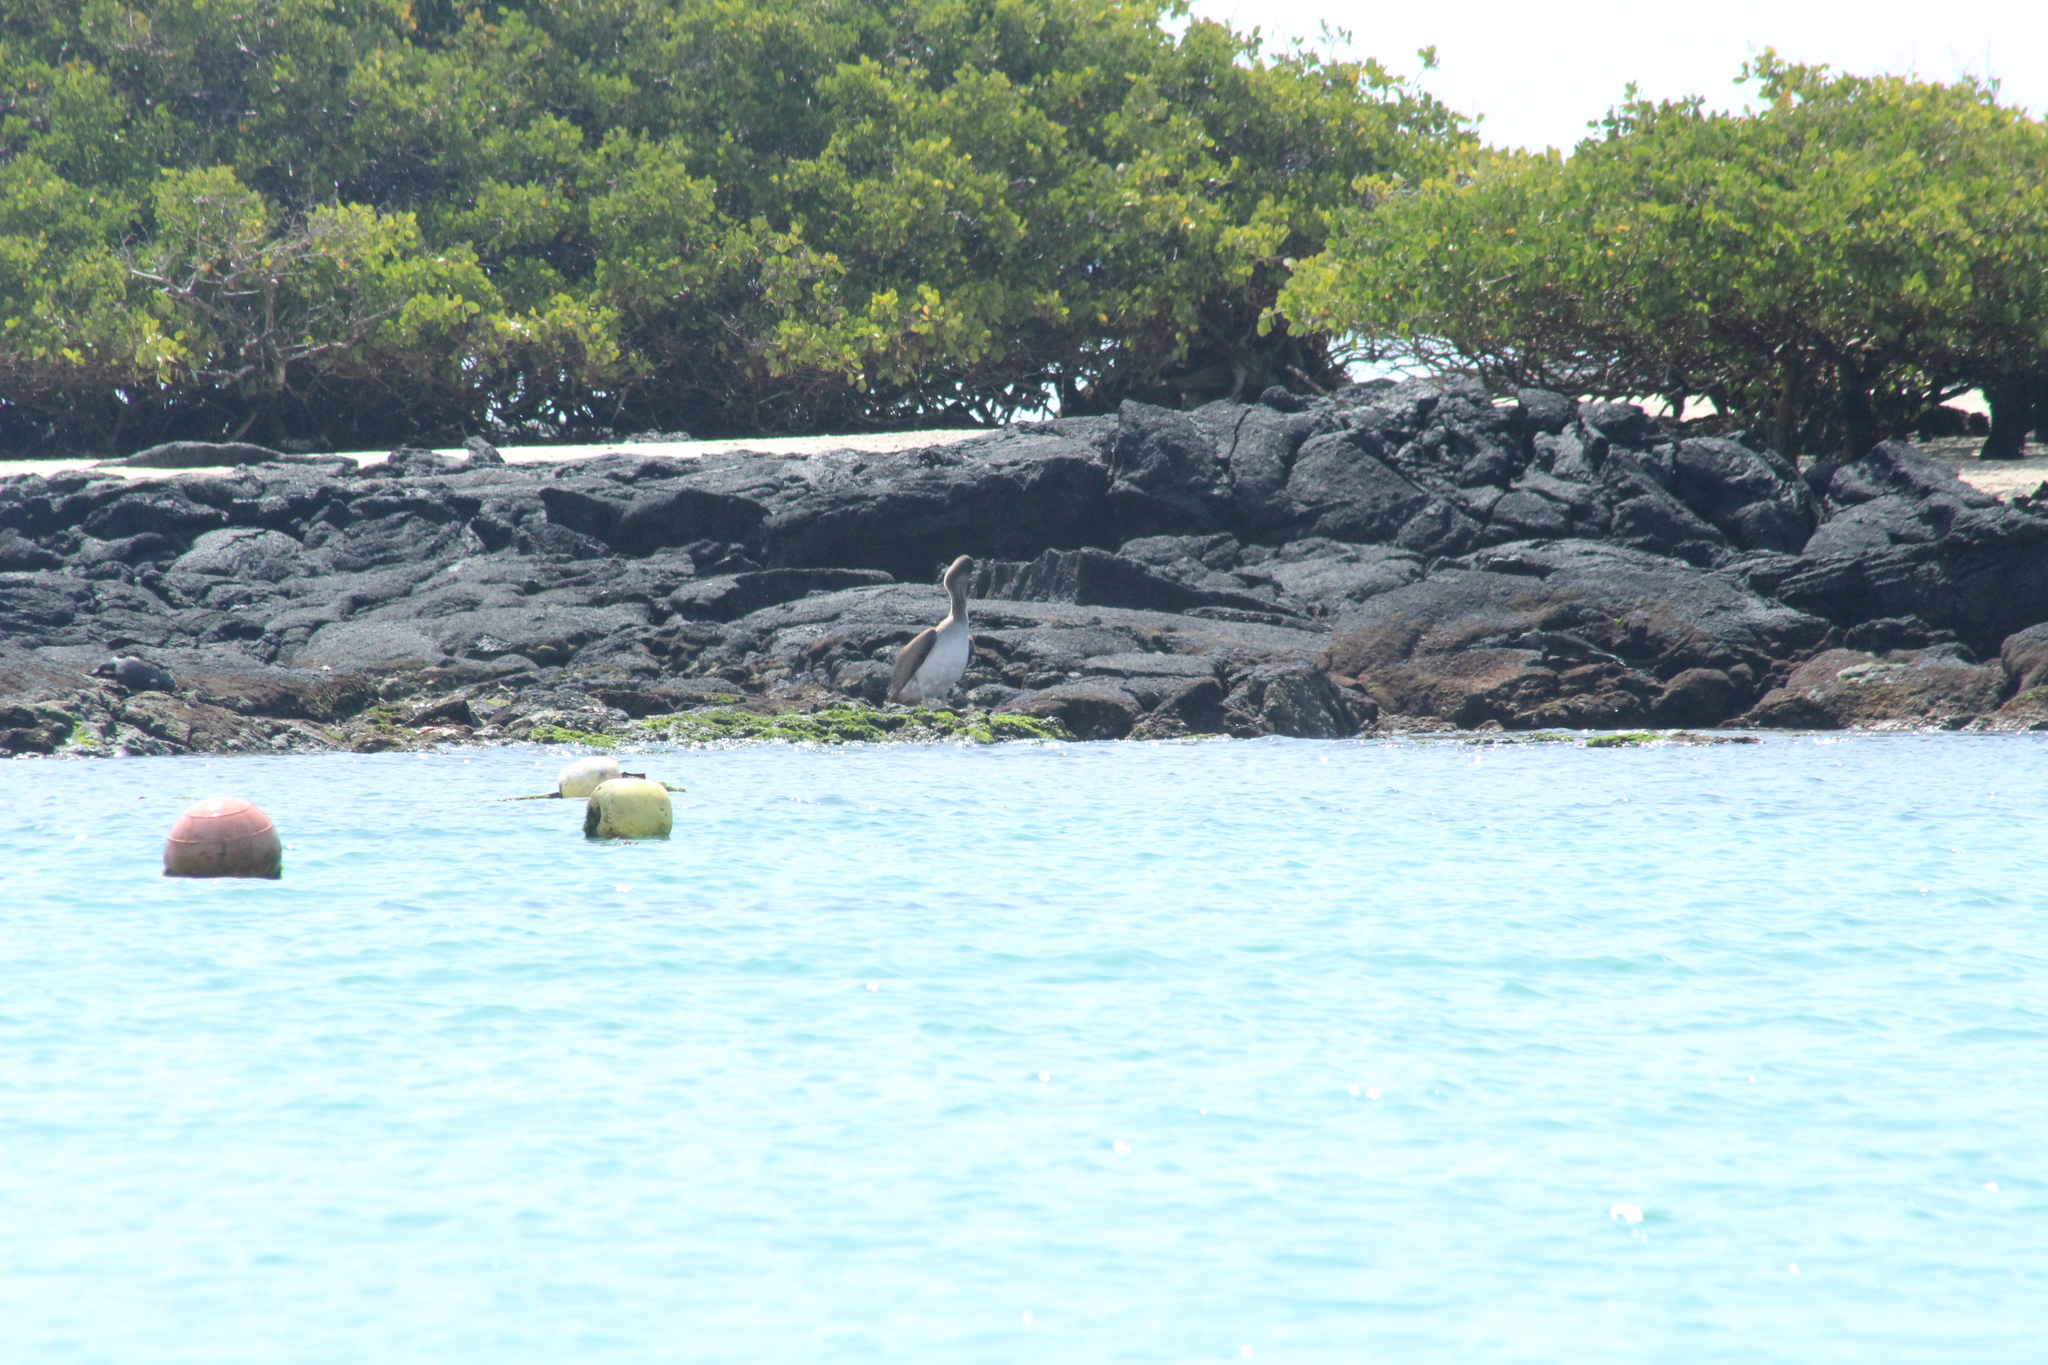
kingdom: Animalia
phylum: Chordata
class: Aves
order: Pelecaniformes
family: Pelecanidae
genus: Pelecanus
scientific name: Pelecanus occidentalis
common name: Brown pelican
